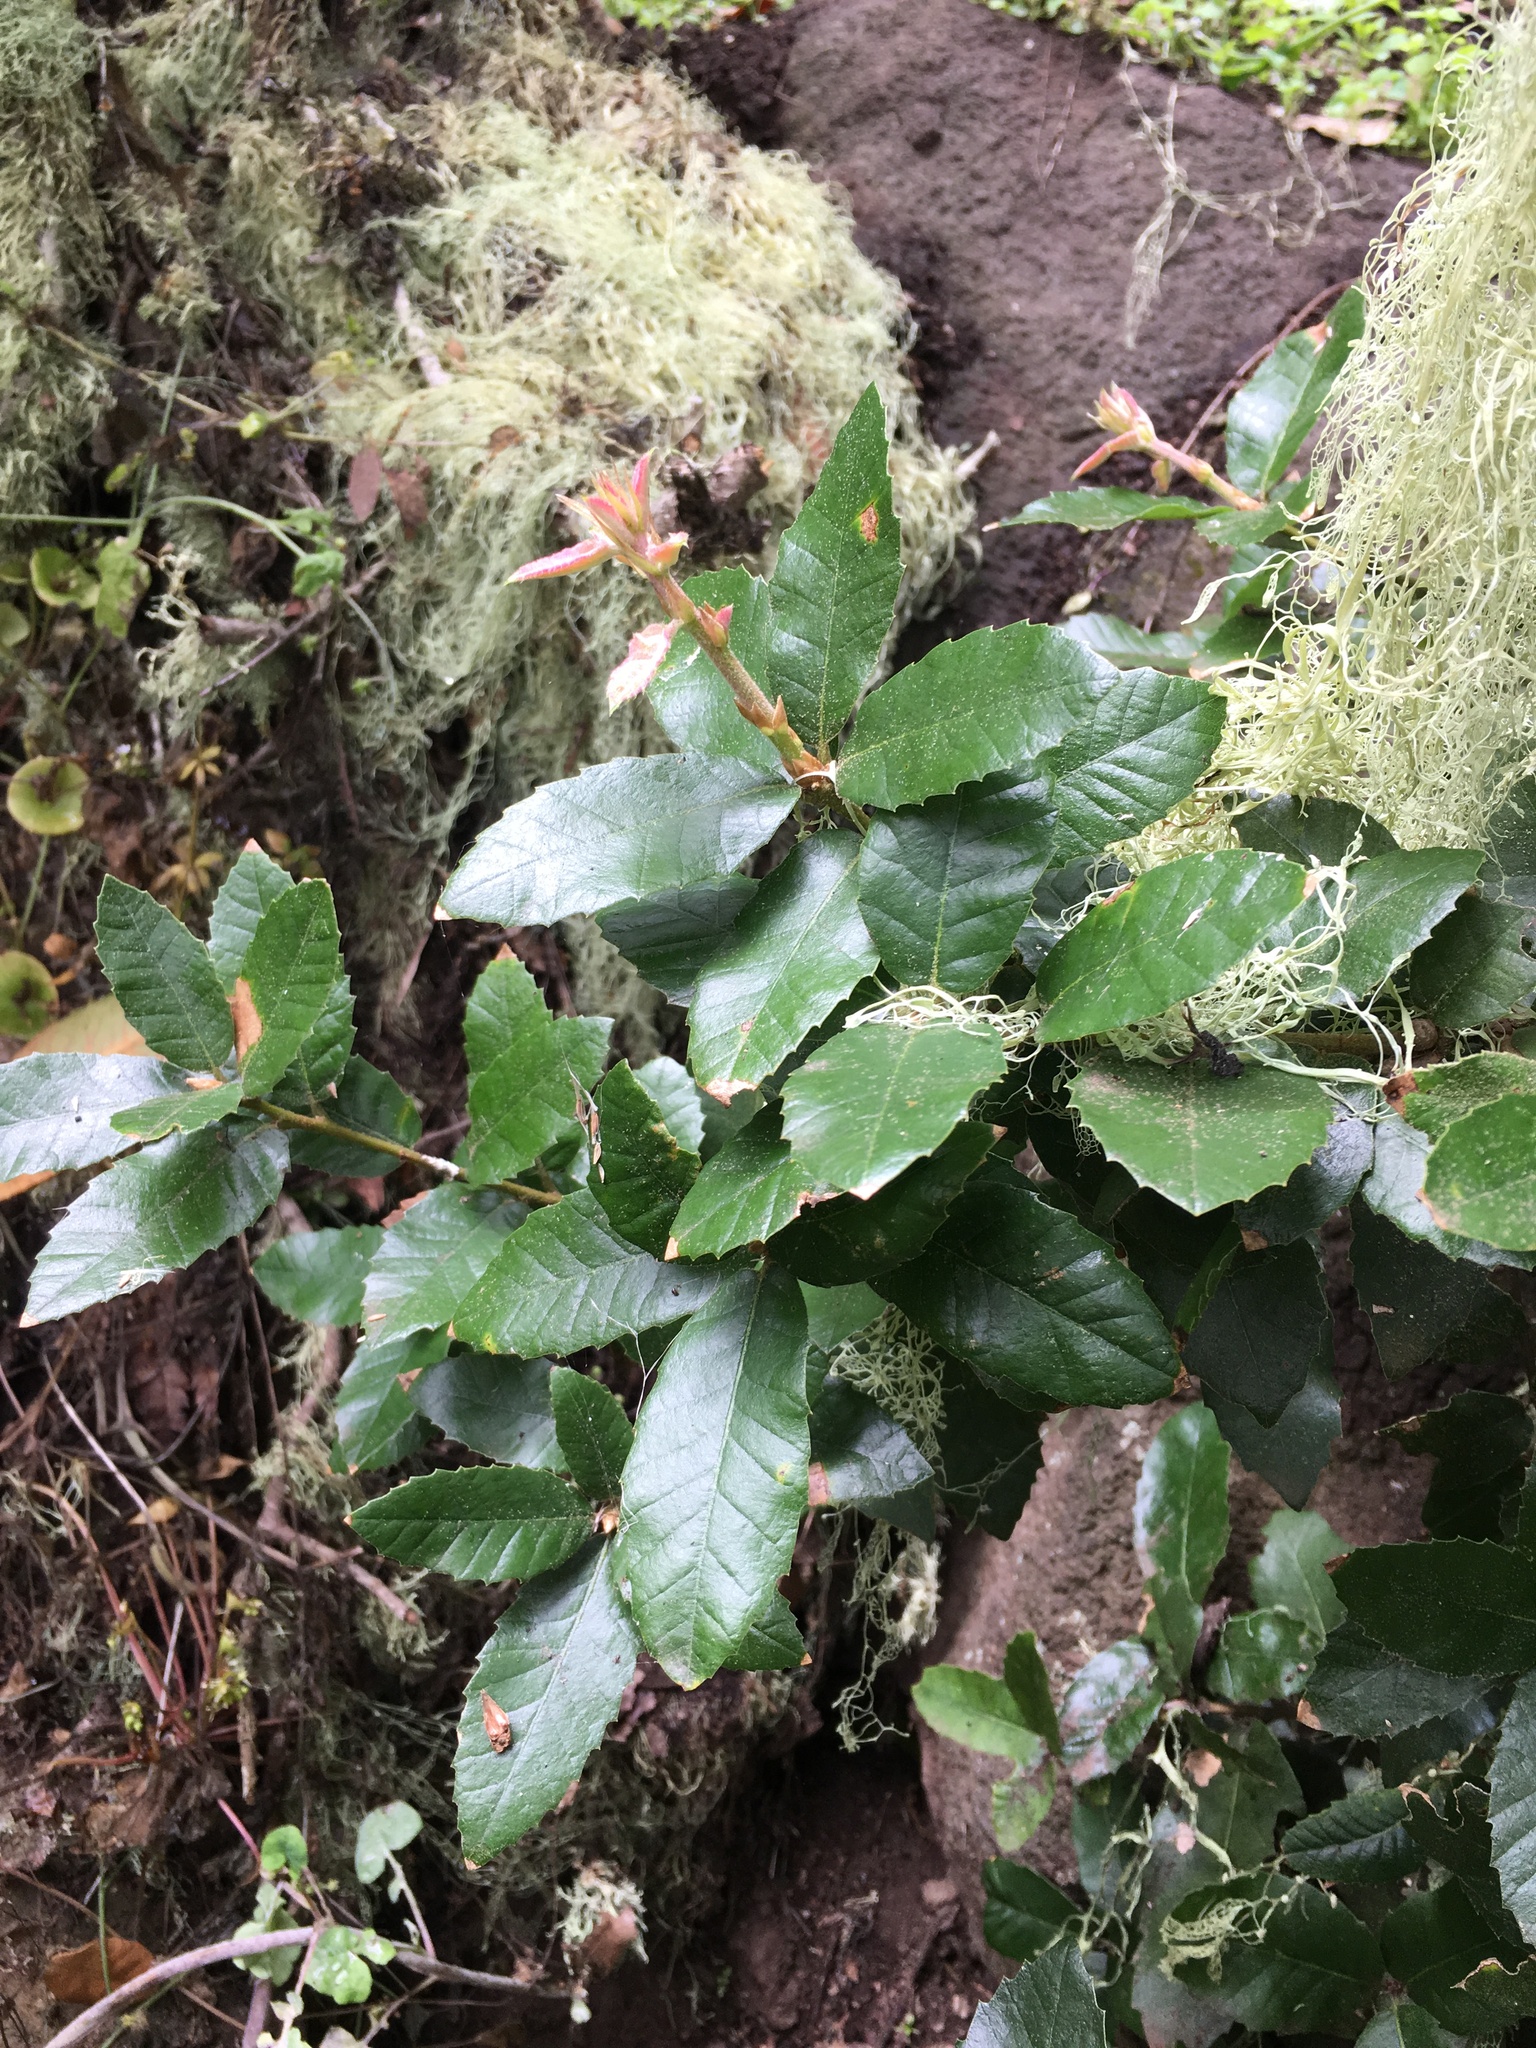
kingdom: Plantae
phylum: Tracheophyta
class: Magnoliopsida
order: Fagales
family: Fagaceae
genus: Quercus
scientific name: Quercus tomentella
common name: Island oak
